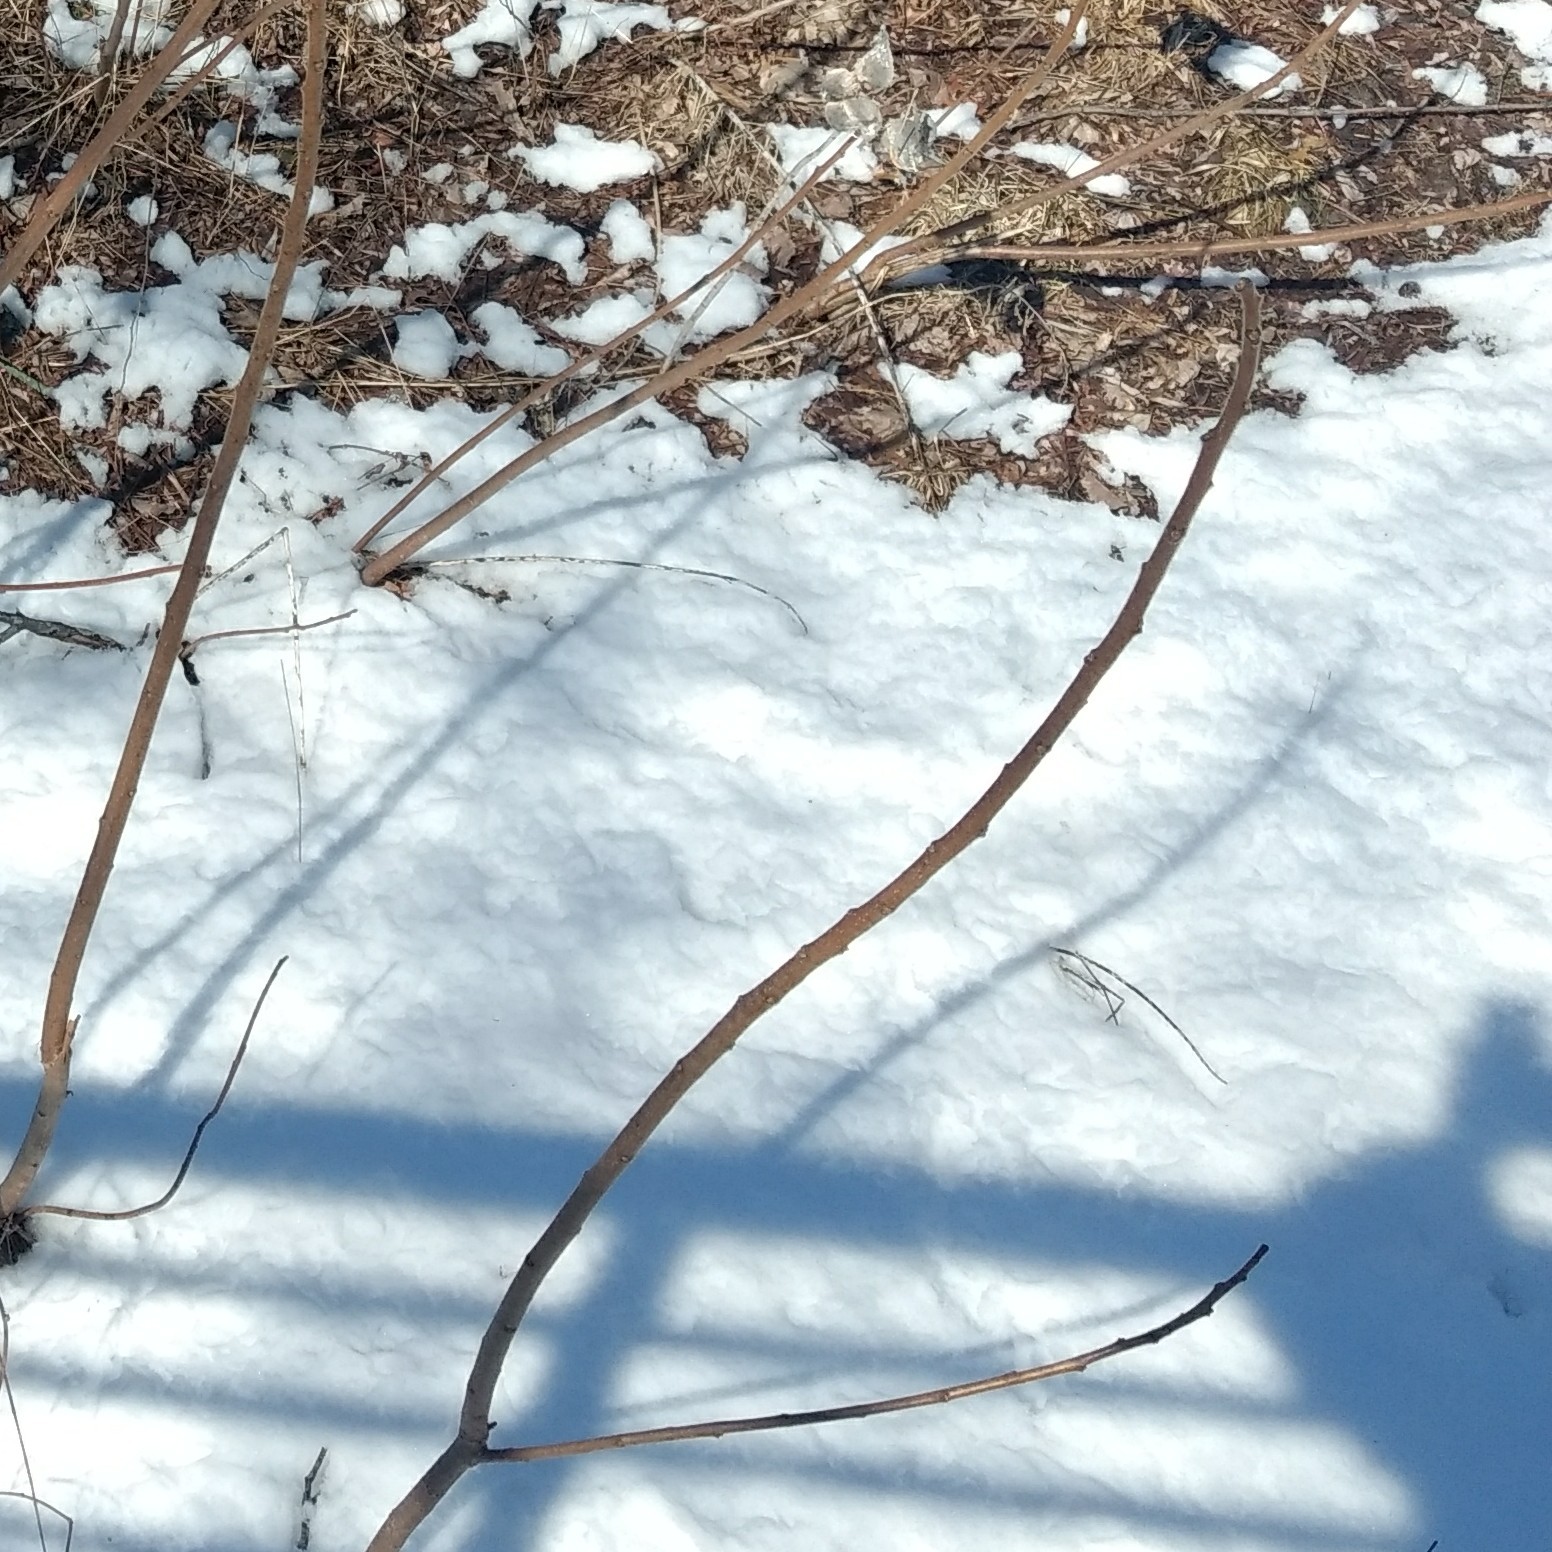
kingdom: Plantae
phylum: Tracheophyta
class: Magnoliopsida
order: Sapindales
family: Anacardiaceae
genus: Rhus
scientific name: Rhus typhina
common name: Staghorn sumac
